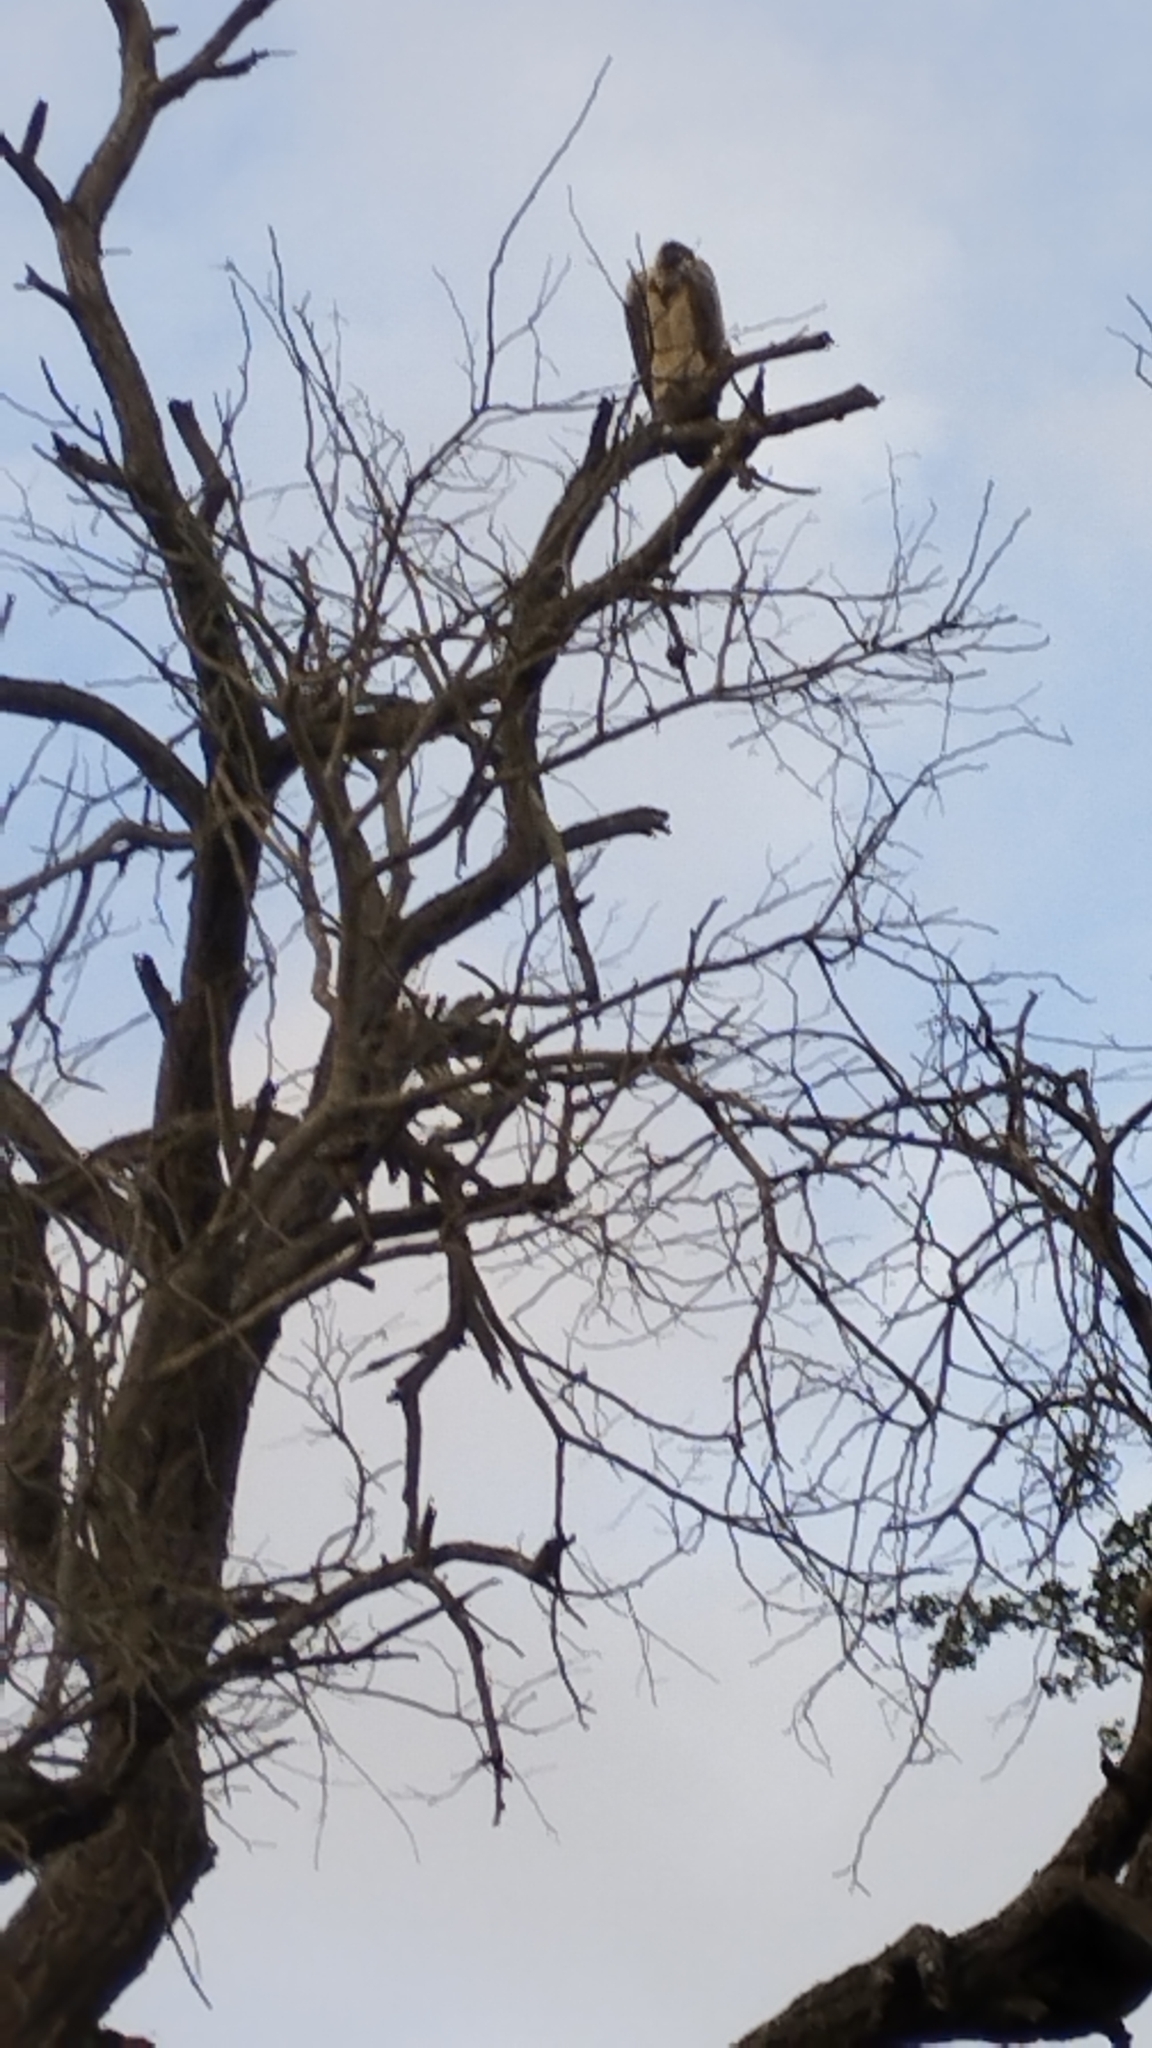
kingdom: Animalia
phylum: Chordata
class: Aves
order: Accipitriformes
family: Accipitridae
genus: Gyps
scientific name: Gyps africanus
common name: White-backed vulture
